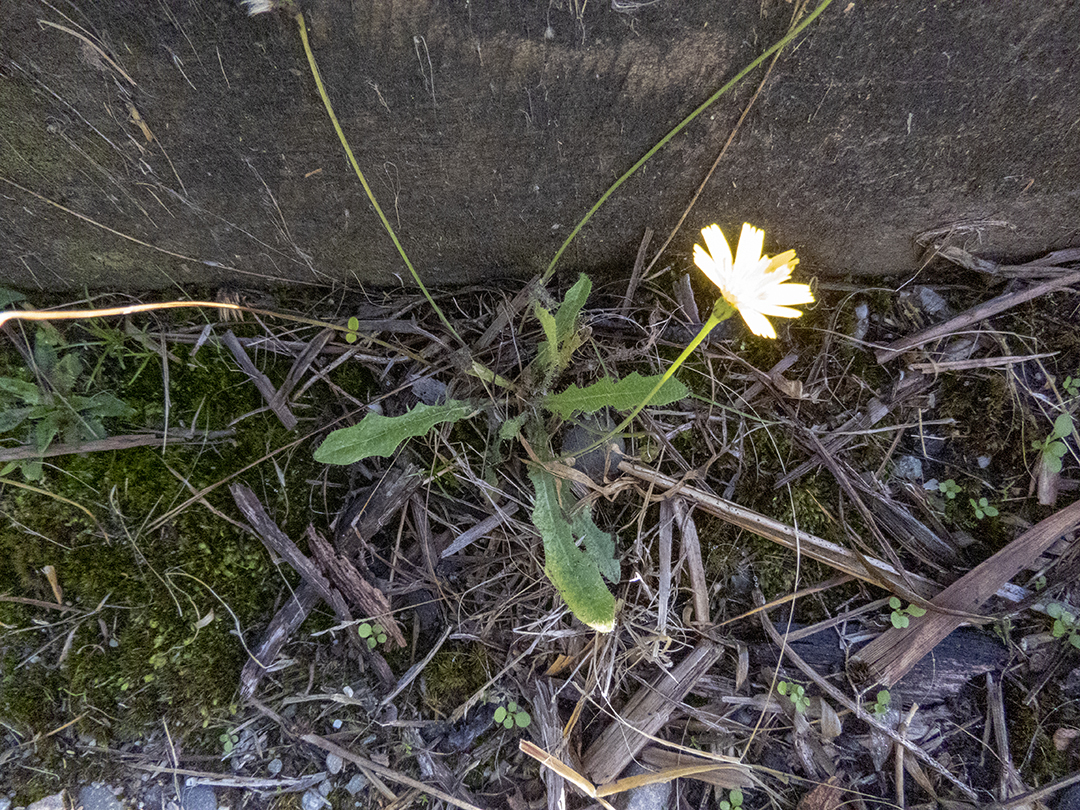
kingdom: Plantae
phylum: Tracheophyta
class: Magnoliopsida
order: Asterales
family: Asteraceae
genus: Hypochaeris
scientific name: Hypochaeris radicata
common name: Flatweed
